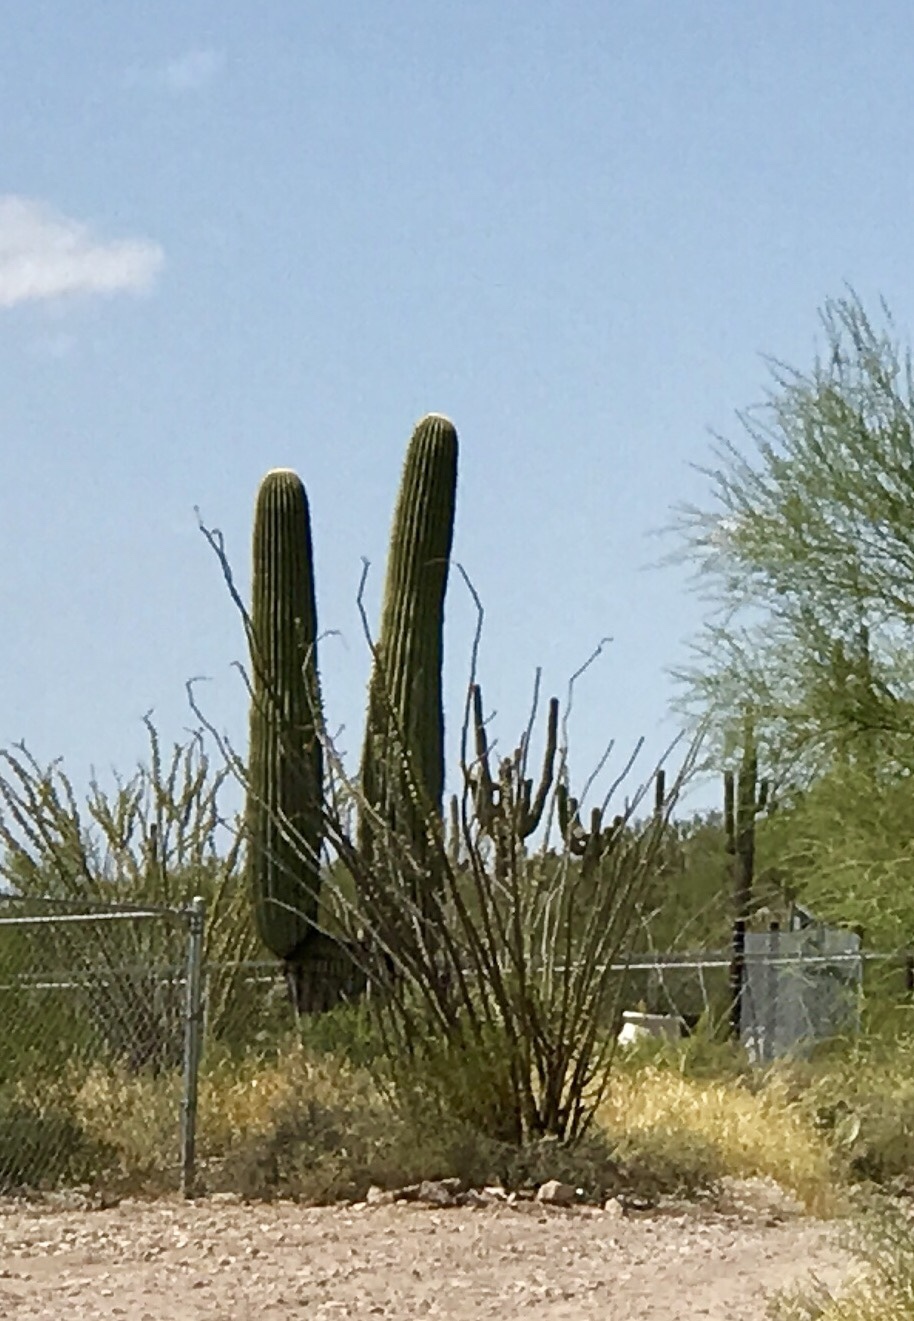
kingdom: Plantae
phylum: Tracheophyta
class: Magnoliopsida
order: Caryophyllales
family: Cactaceae
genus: Carnegiea
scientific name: Carnegiea gigantea
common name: Saguaro
